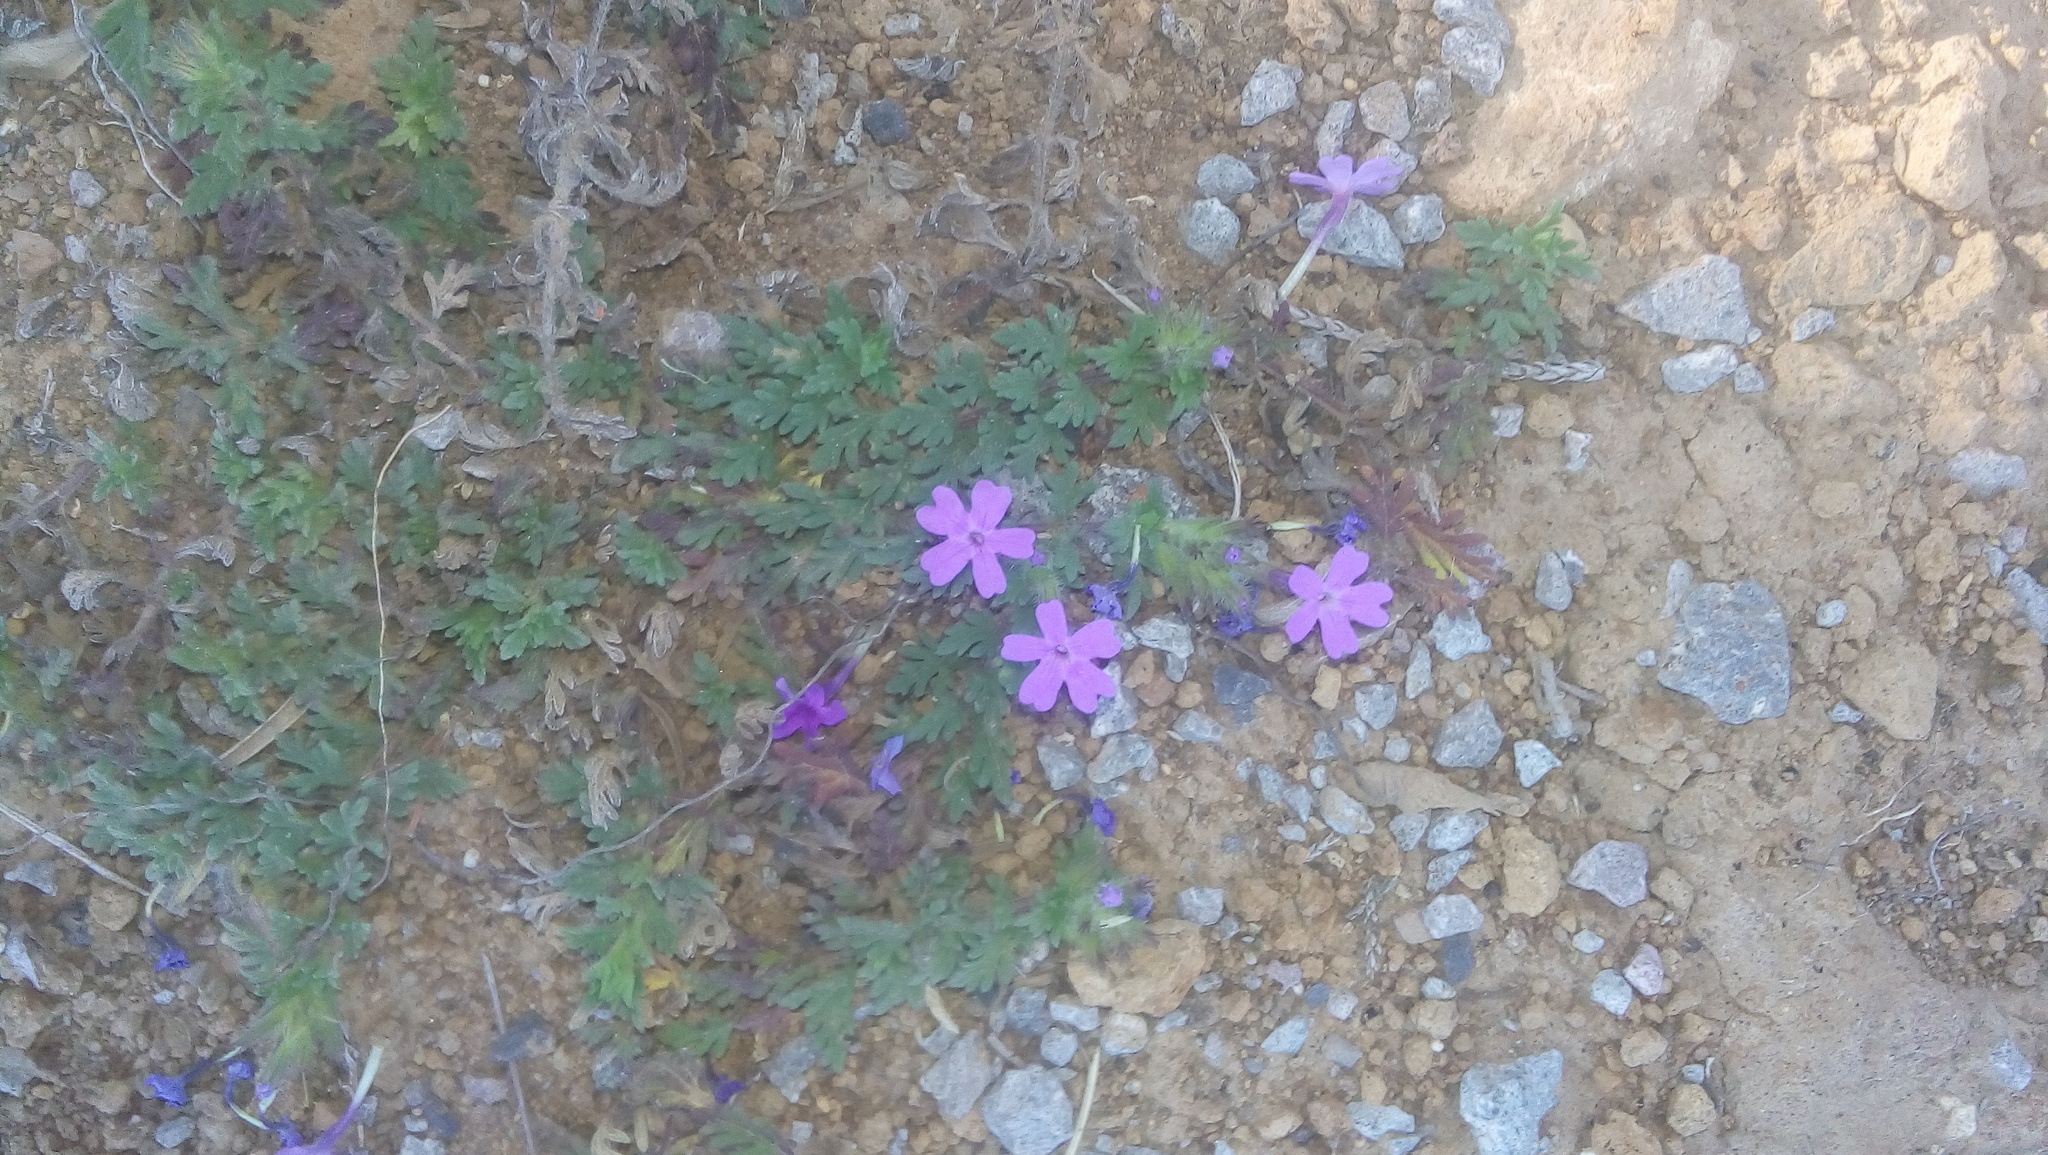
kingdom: Plantae
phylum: Tracheophyta
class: Magnoliopsida
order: Lamiales
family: Verbenaceae
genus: Verbena
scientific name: Verbena bipinnatifida
